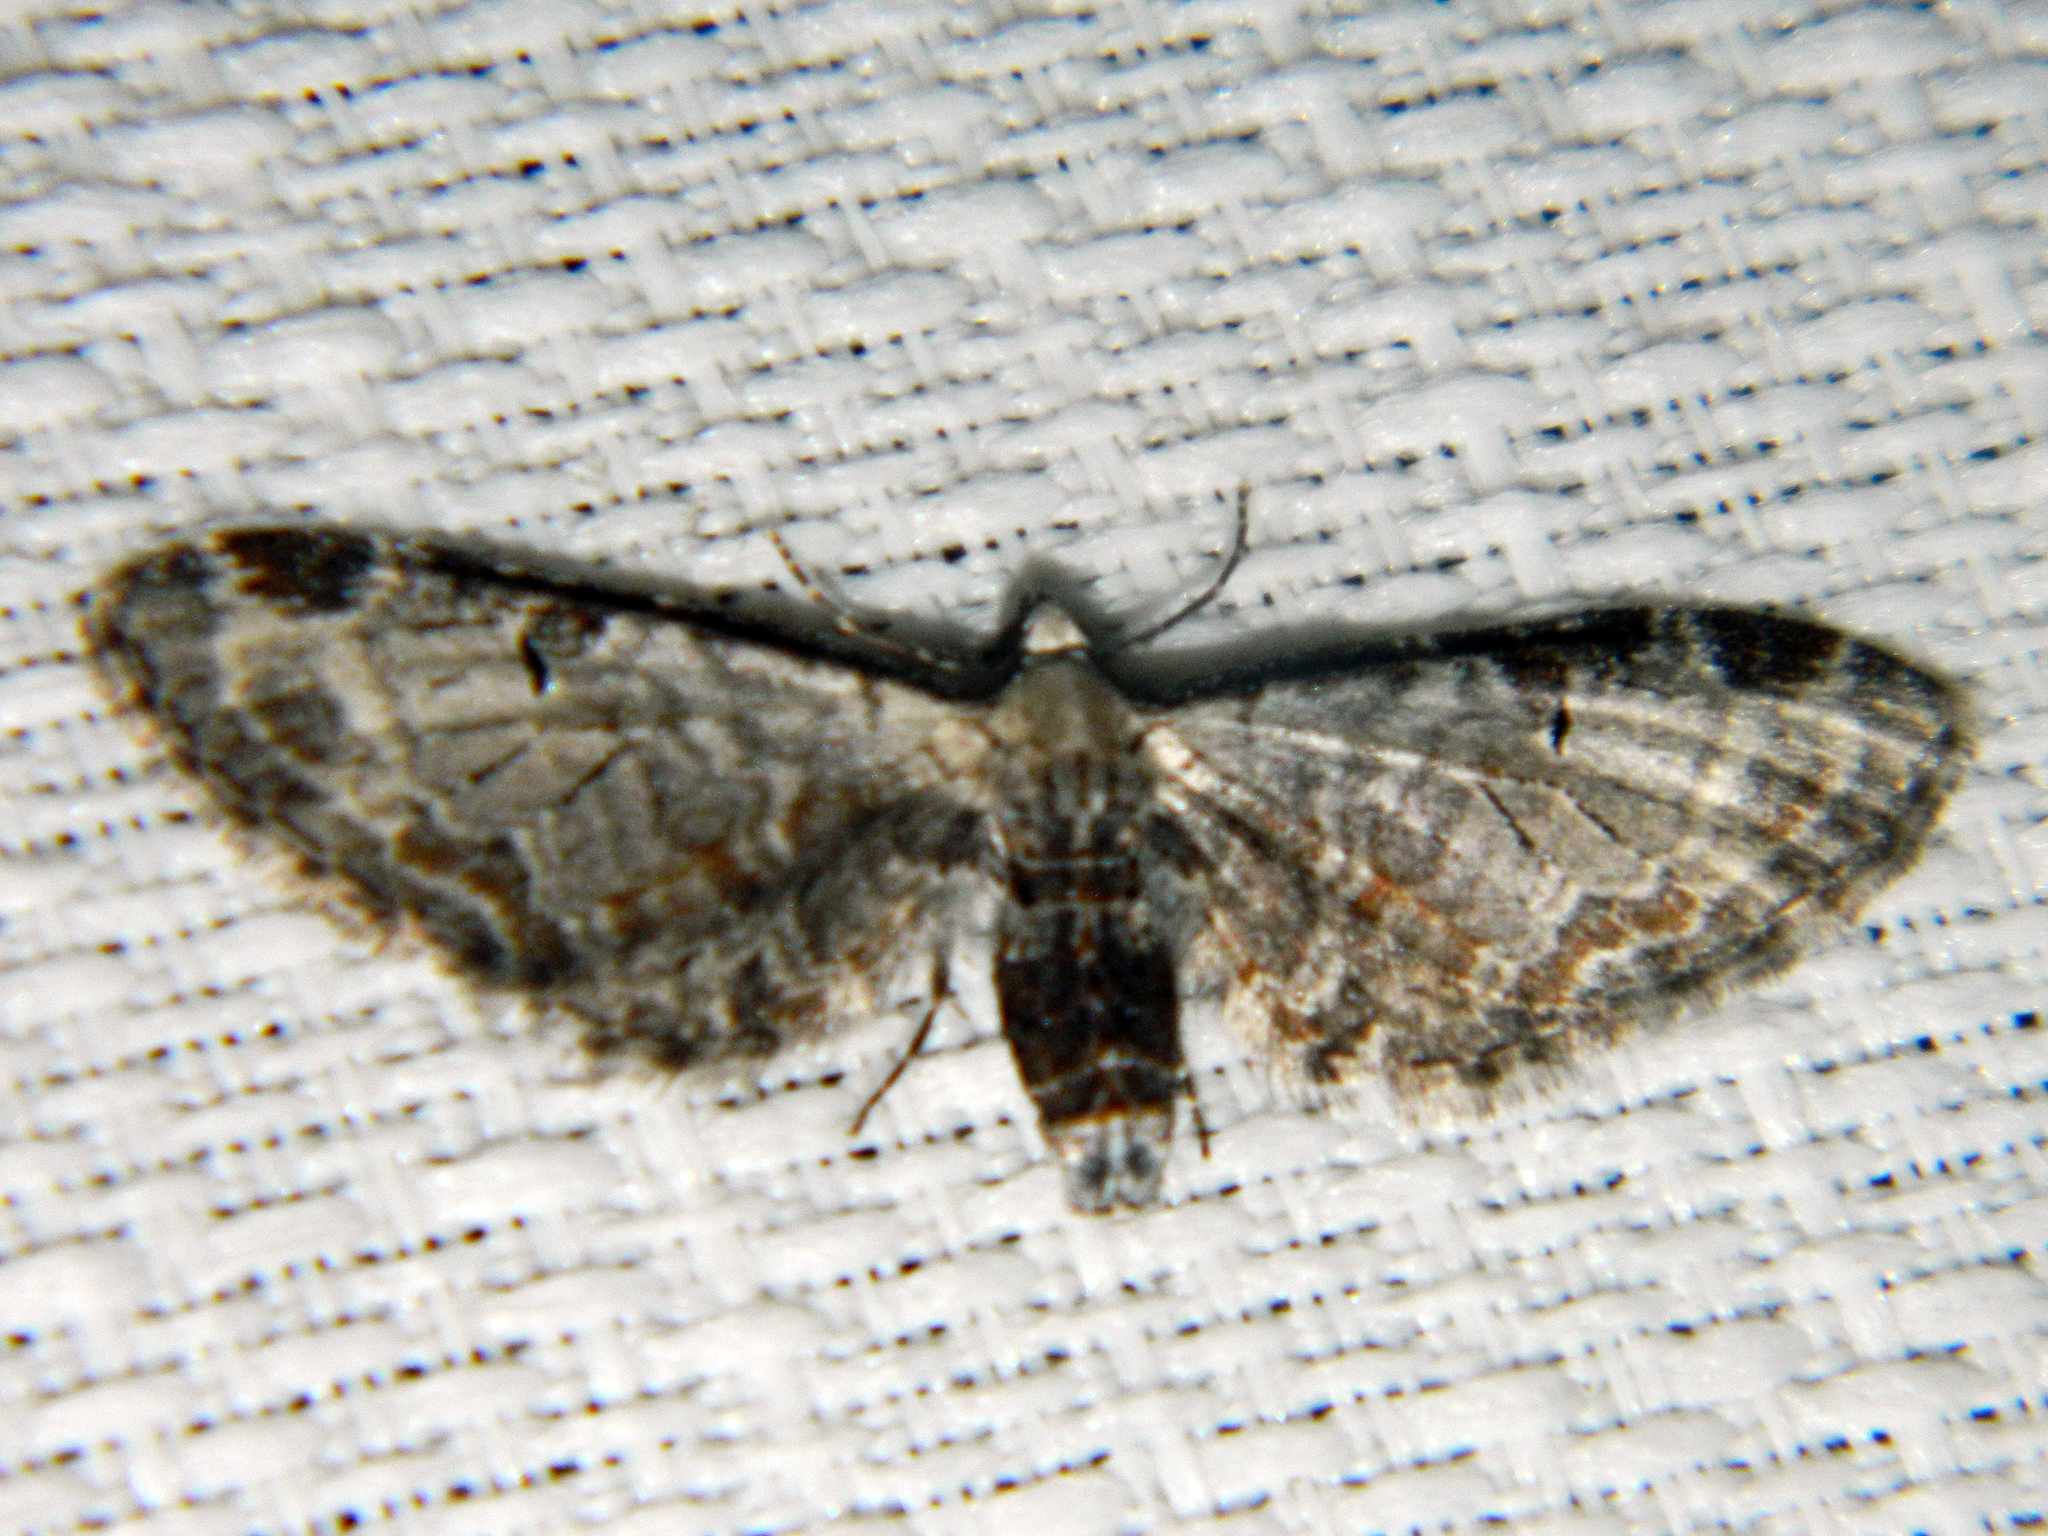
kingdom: Animalia
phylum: Arthropoda
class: Insecta
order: Lepidoptera
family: Geometridae
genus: Eupithecia
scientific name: Eupithecia ravocostaliata
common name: Great varigated pug
